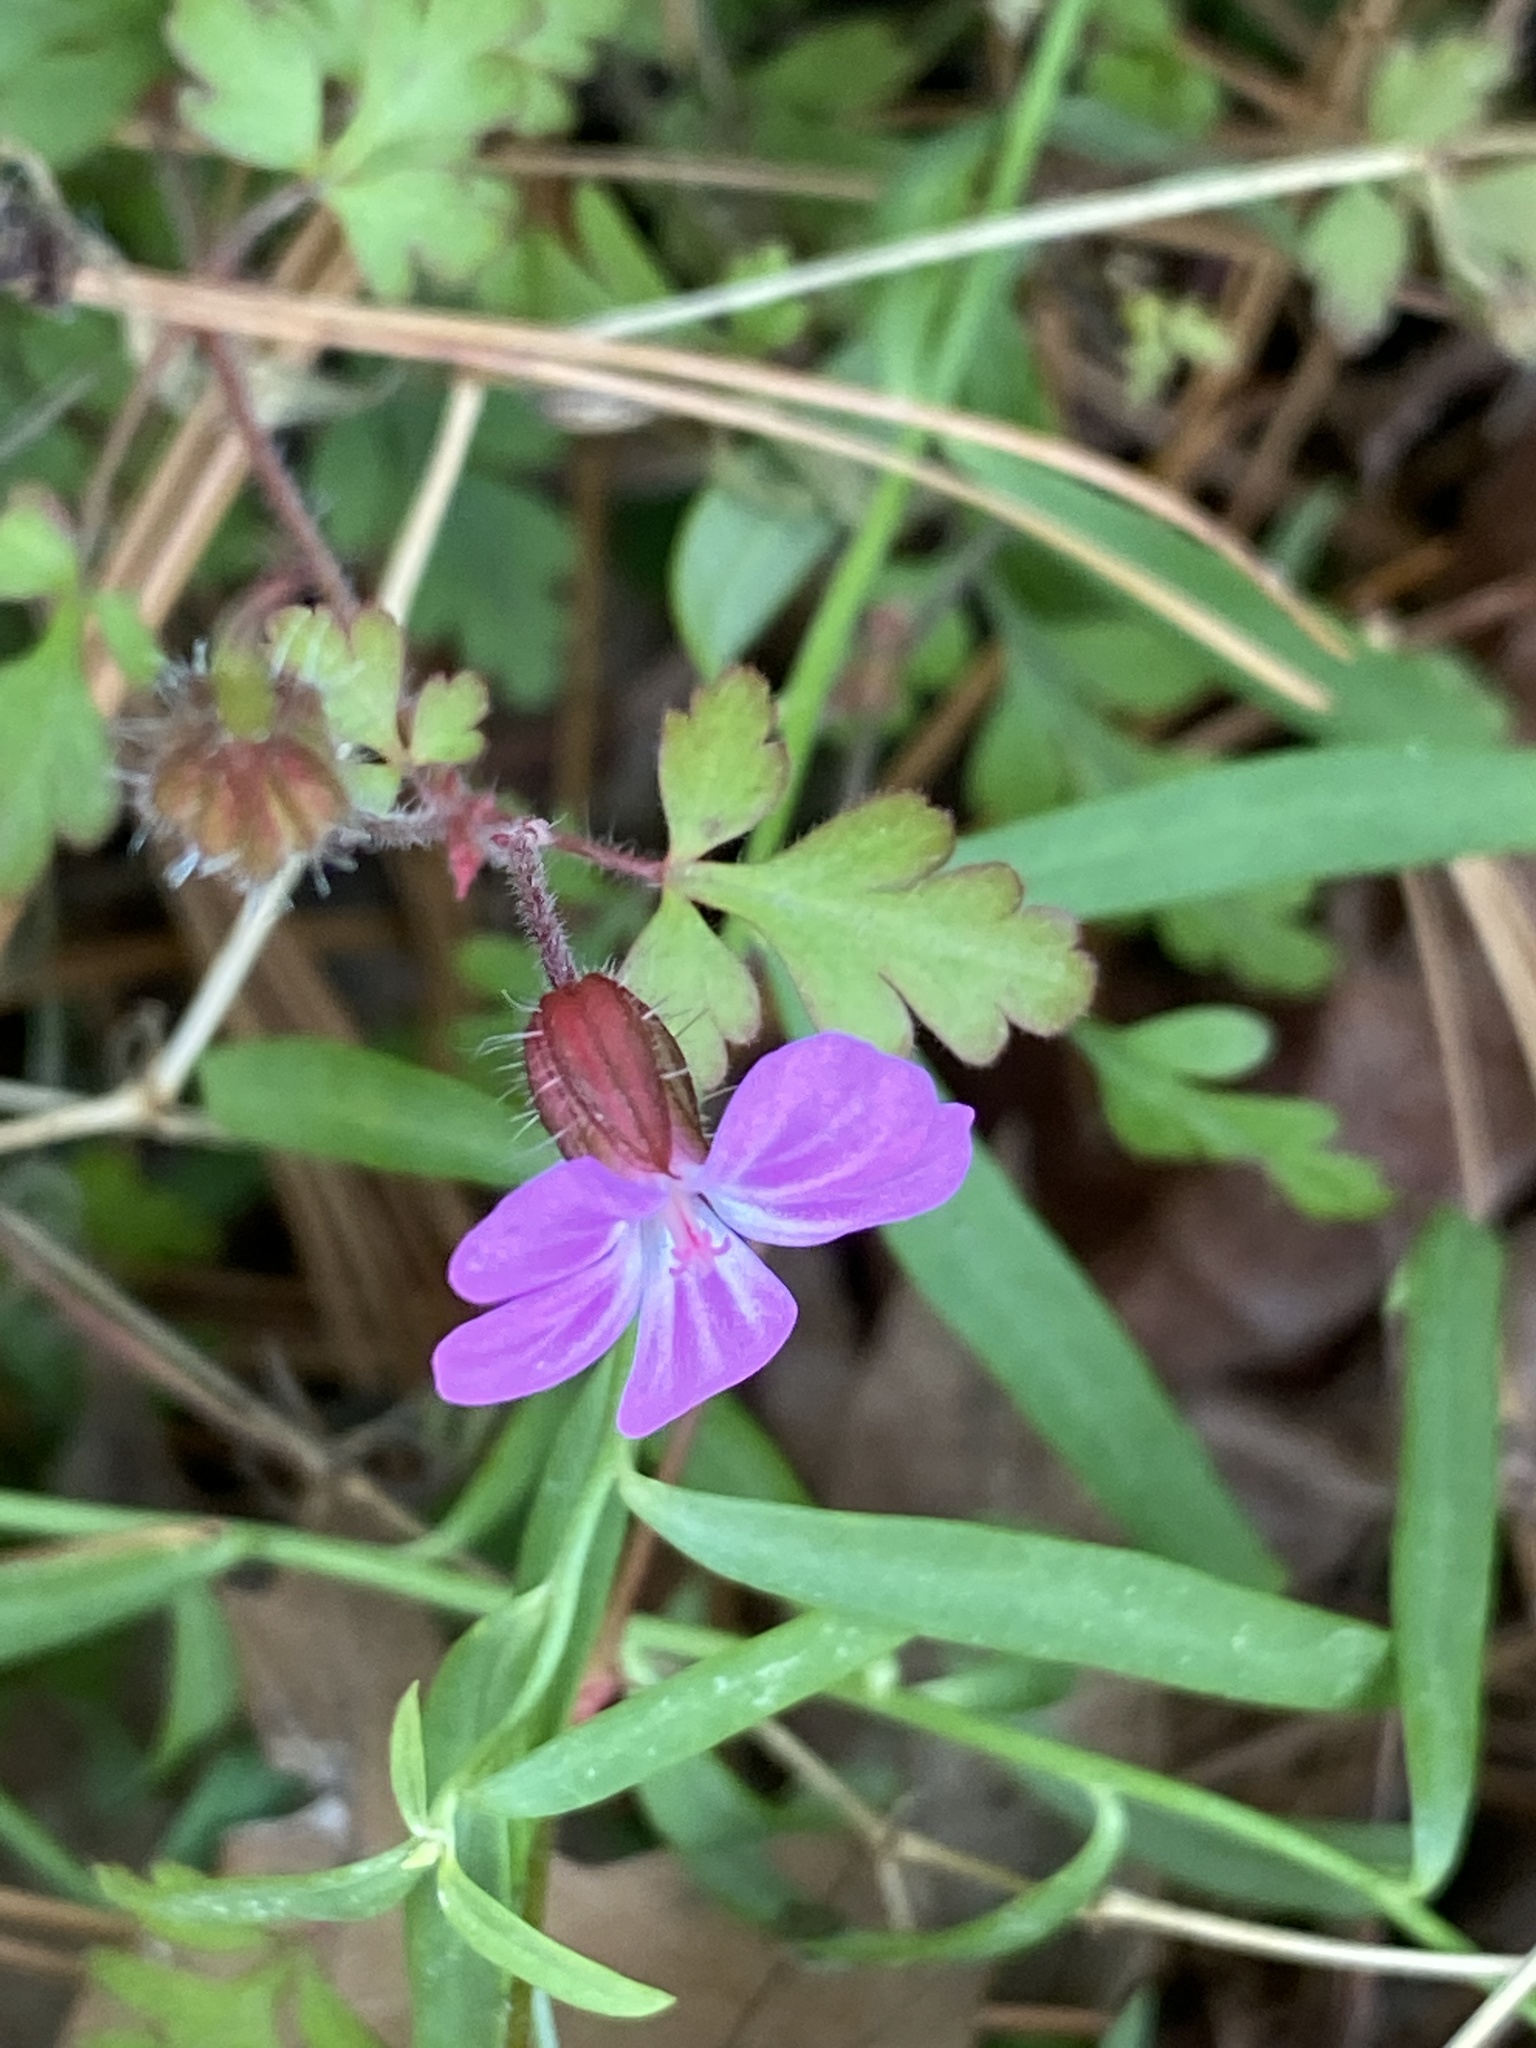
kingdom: Plantae
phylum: Tracheophyta
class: Magnoliopsida
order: Geraniales
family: Geraniaceae
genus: Geranium
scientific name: Geranium robertianum
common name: Herb-robert
